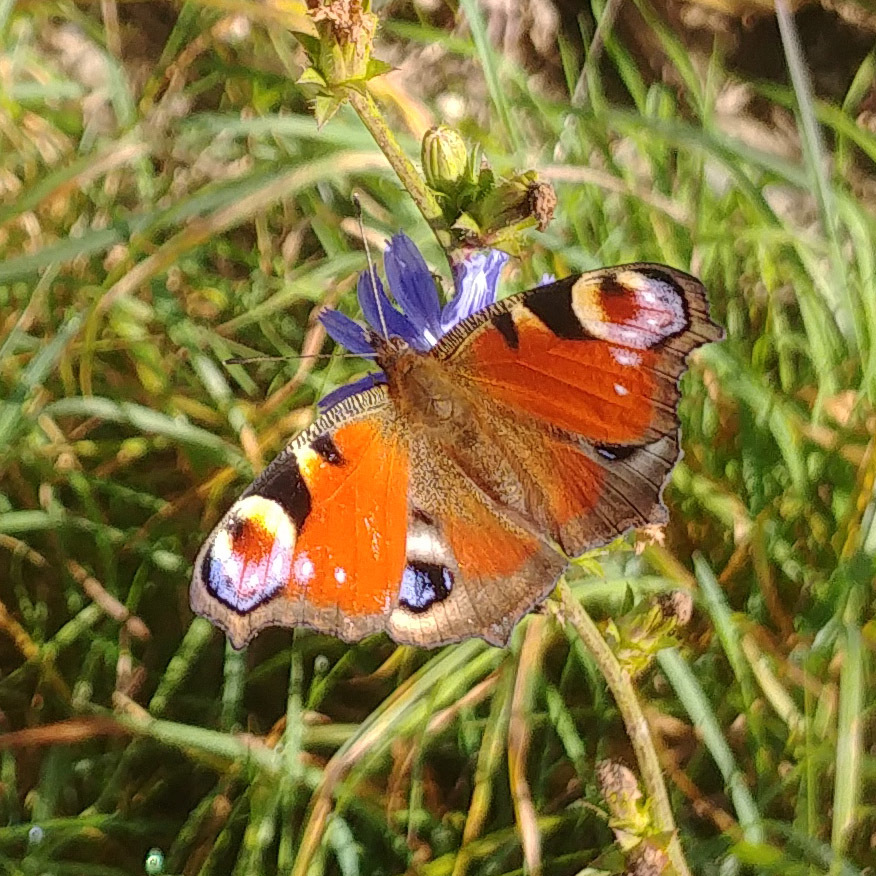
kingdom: Animalia
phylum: Arthropoda
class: Insecta
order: Lepidoptera
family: Nymphalidae
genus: Aglais
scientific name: Aglais io
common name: Peacock
